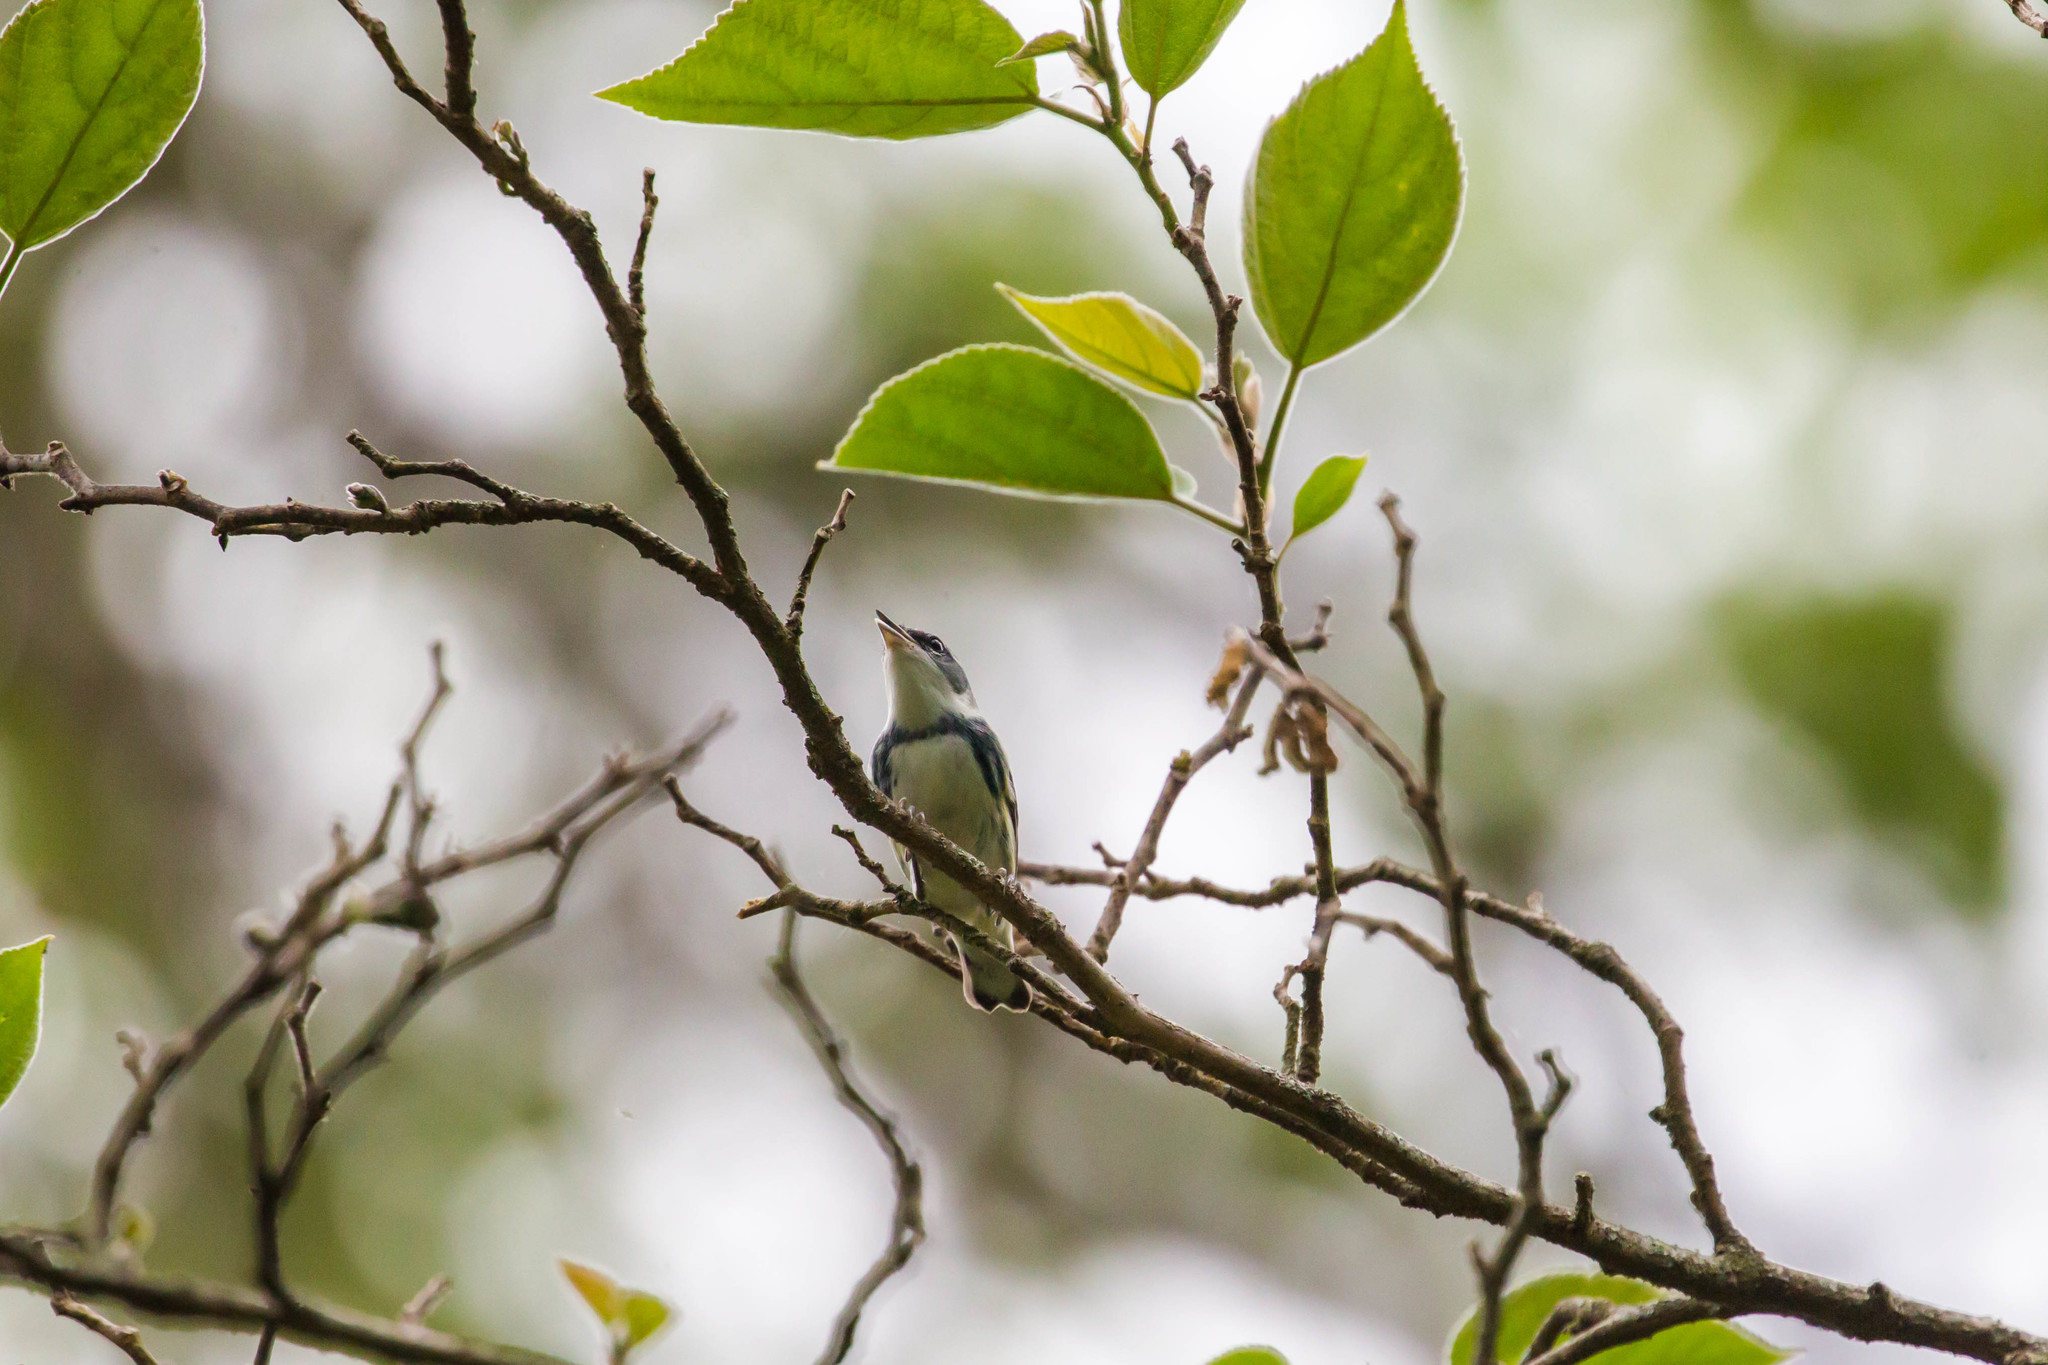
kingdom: Animalia
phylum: Chordata
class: Aves
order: Passeriformes
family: Parulidae
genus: Setophaga
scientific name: Setophaga cerulea
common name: Cerulean warbler
